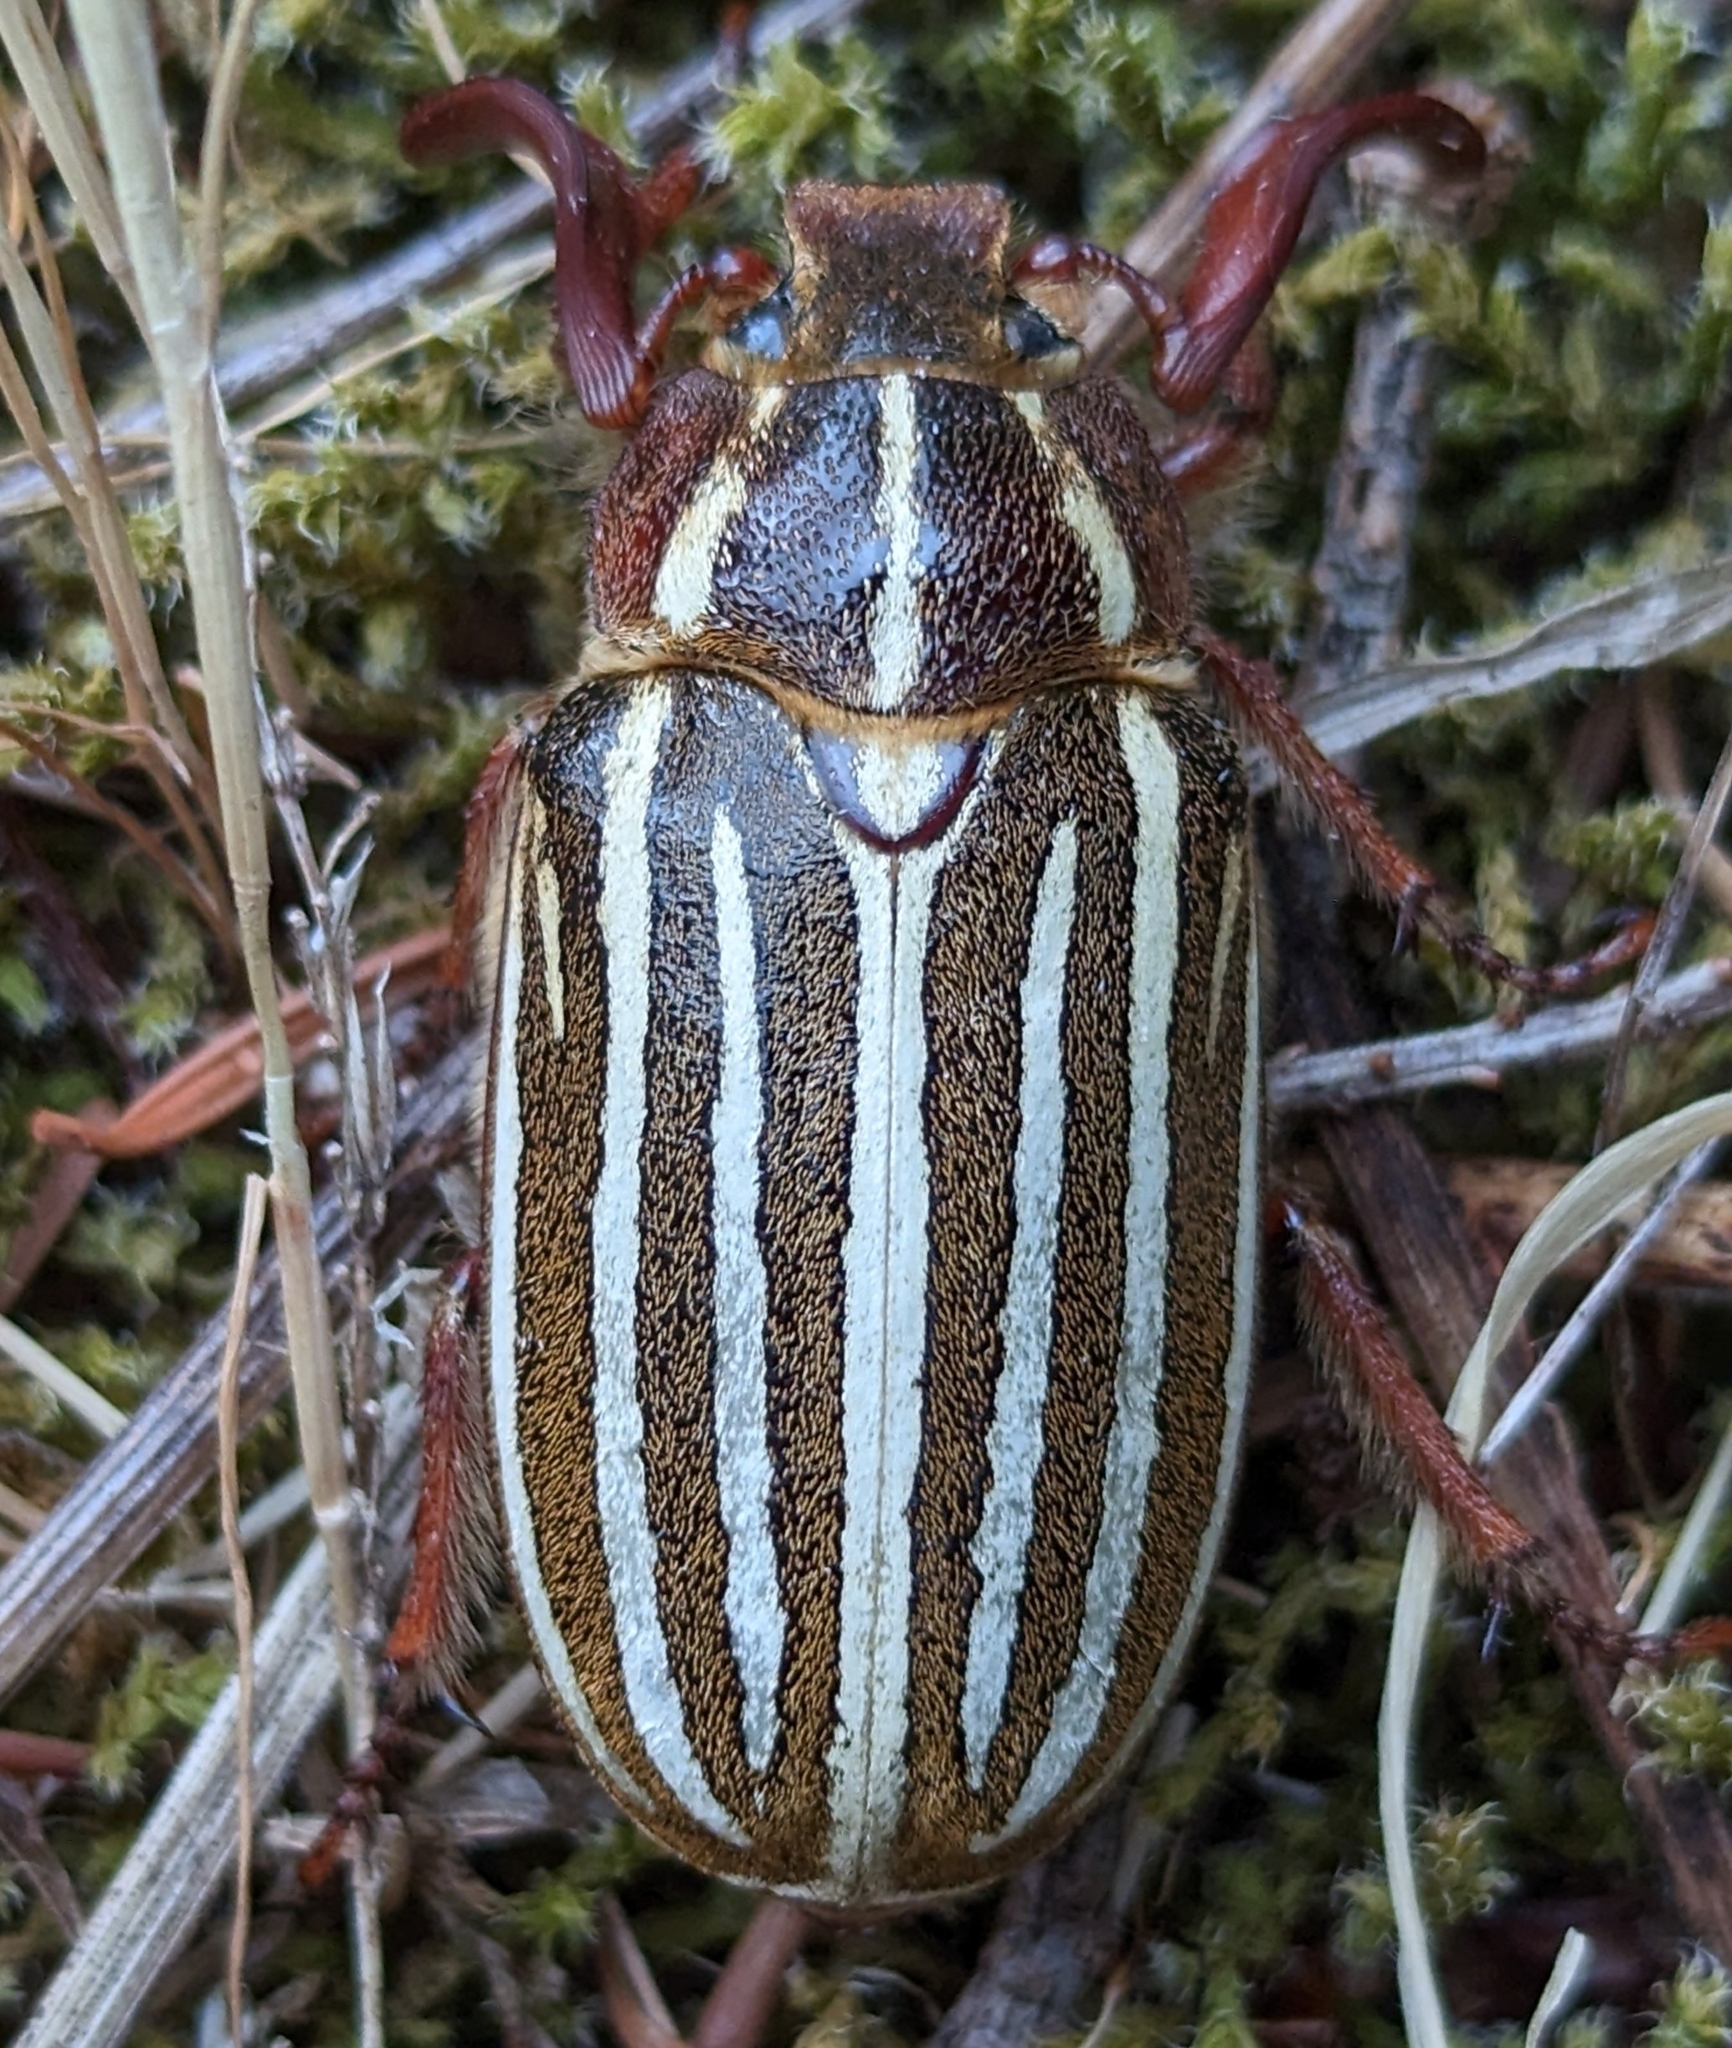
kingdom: Animalia
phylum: Arthropoda
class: Insecta
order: Coleoptera
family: Scarabaeidae
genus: Polyphylla
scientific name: Polyphylla crinita
